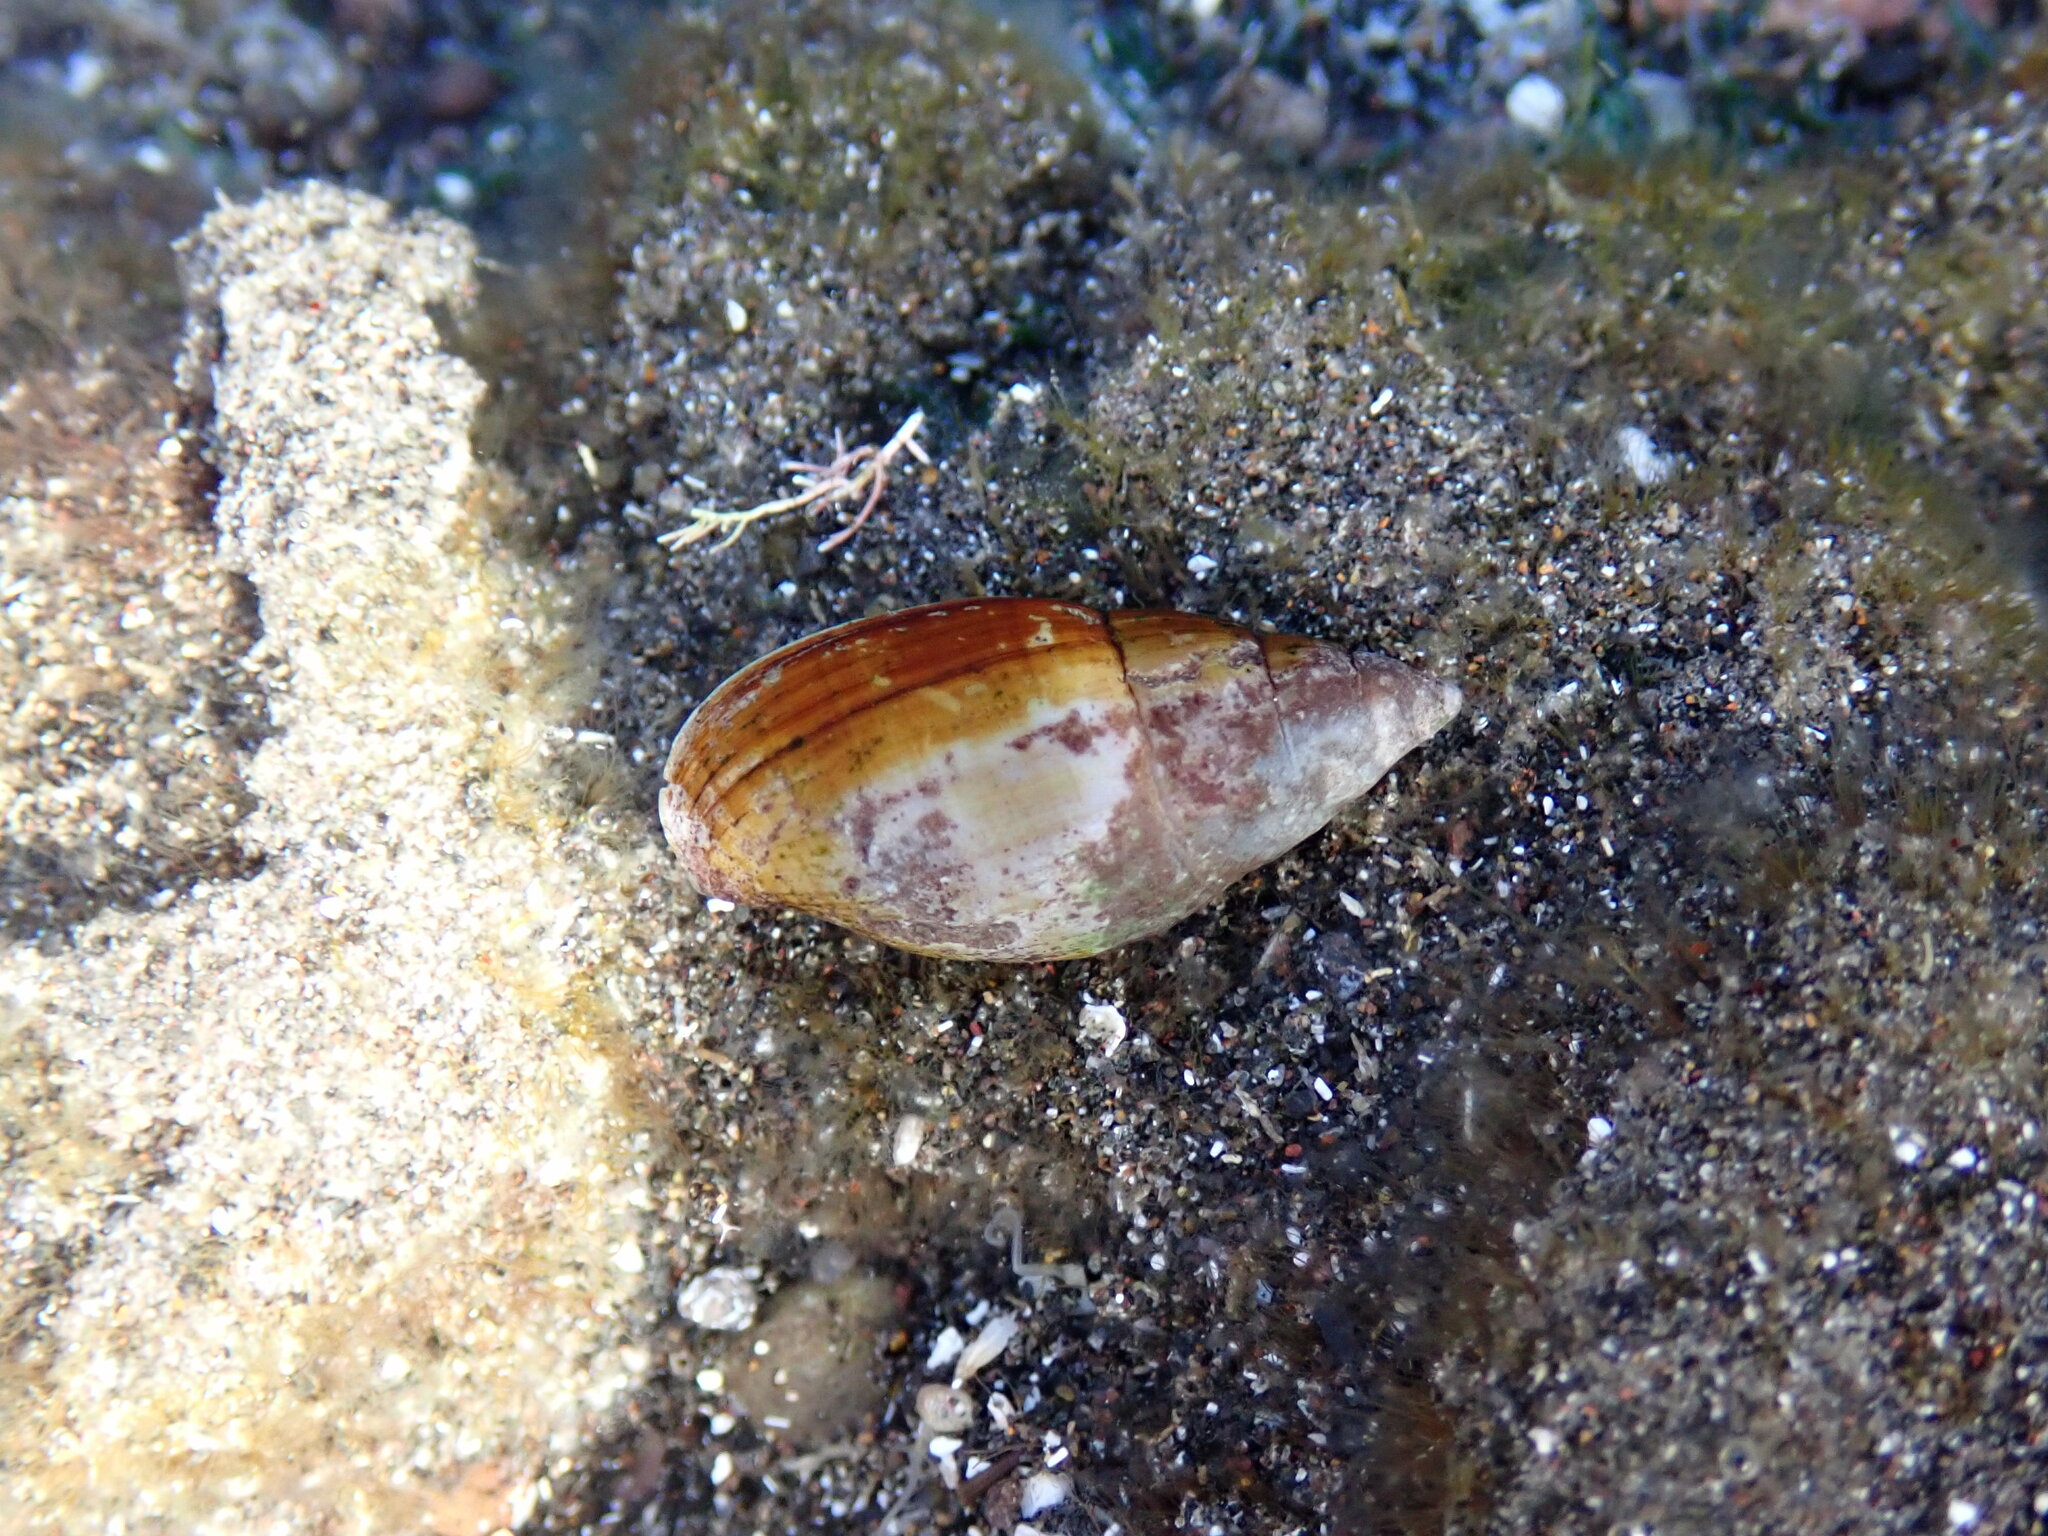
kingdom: Animalia
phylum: Mollusca
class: Gastropoda
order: Neogastropoda
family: Mitridae
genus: Isara
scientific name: Isara cornea
